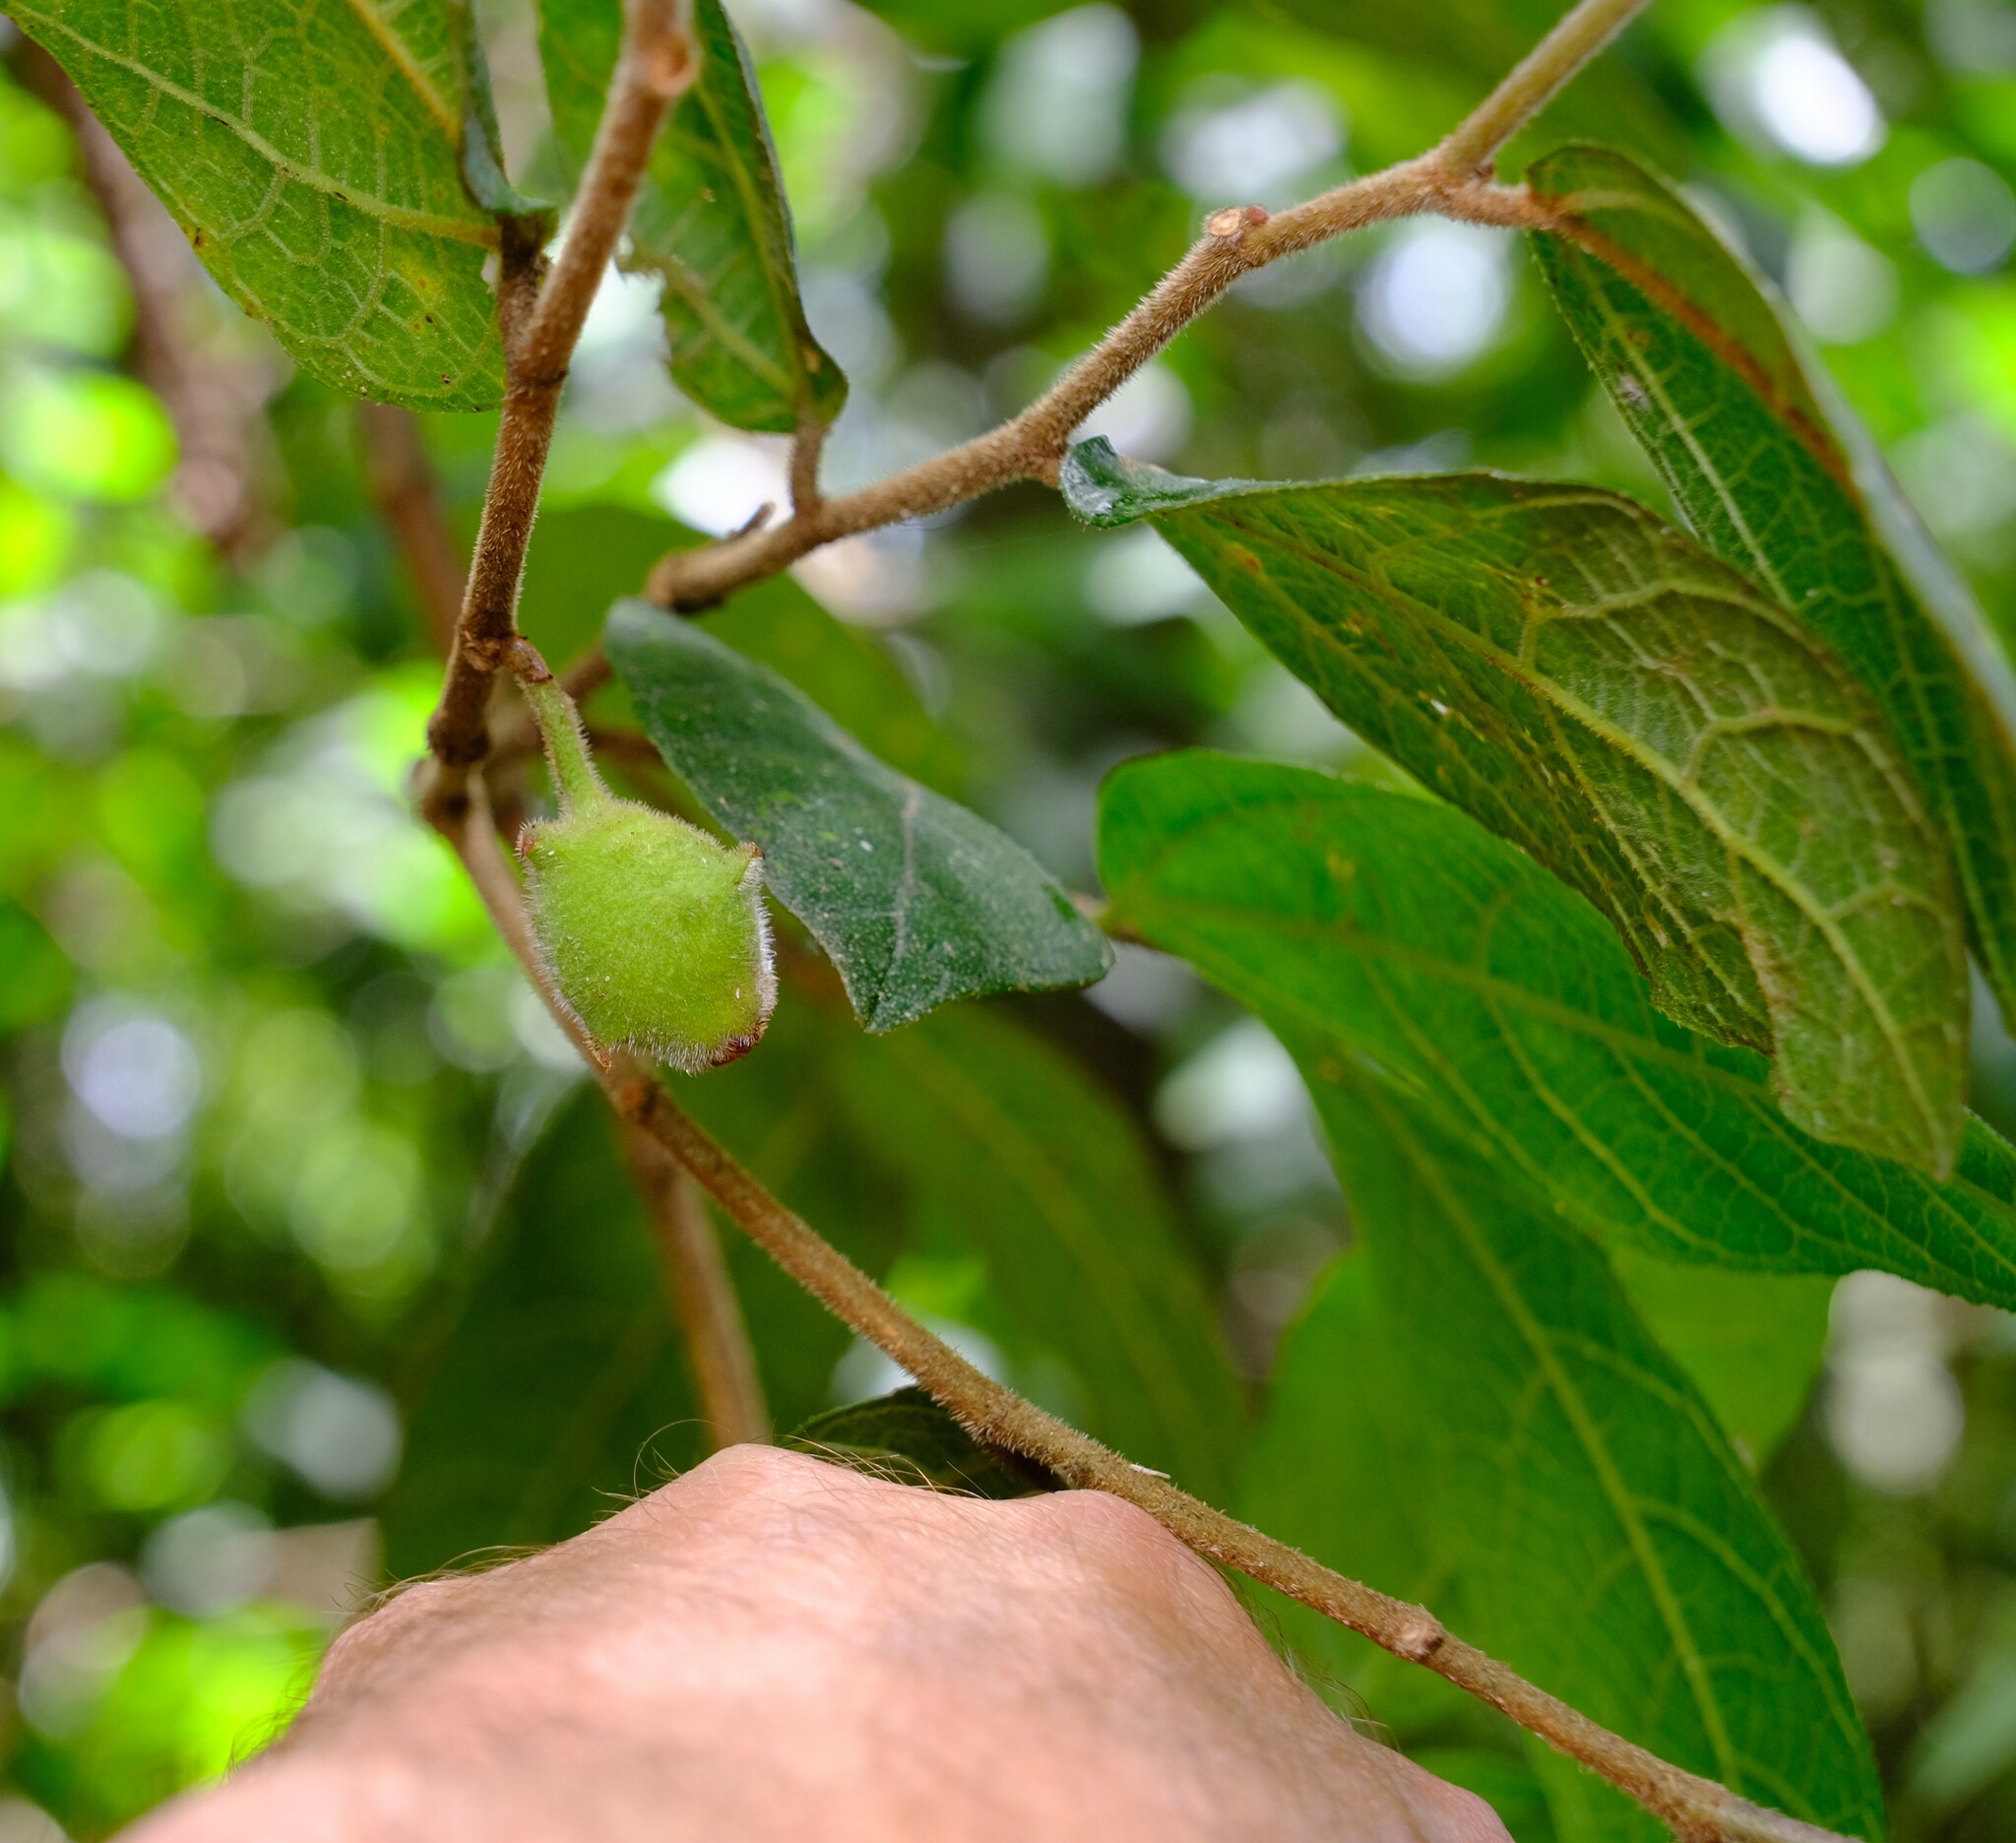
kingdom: Plantae
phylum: Tracheophyta
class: Magnoliopsida
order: Rosales
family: Moraceae
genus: Ficus
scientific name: Ficus coronata
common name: Creek sandpaper fig
